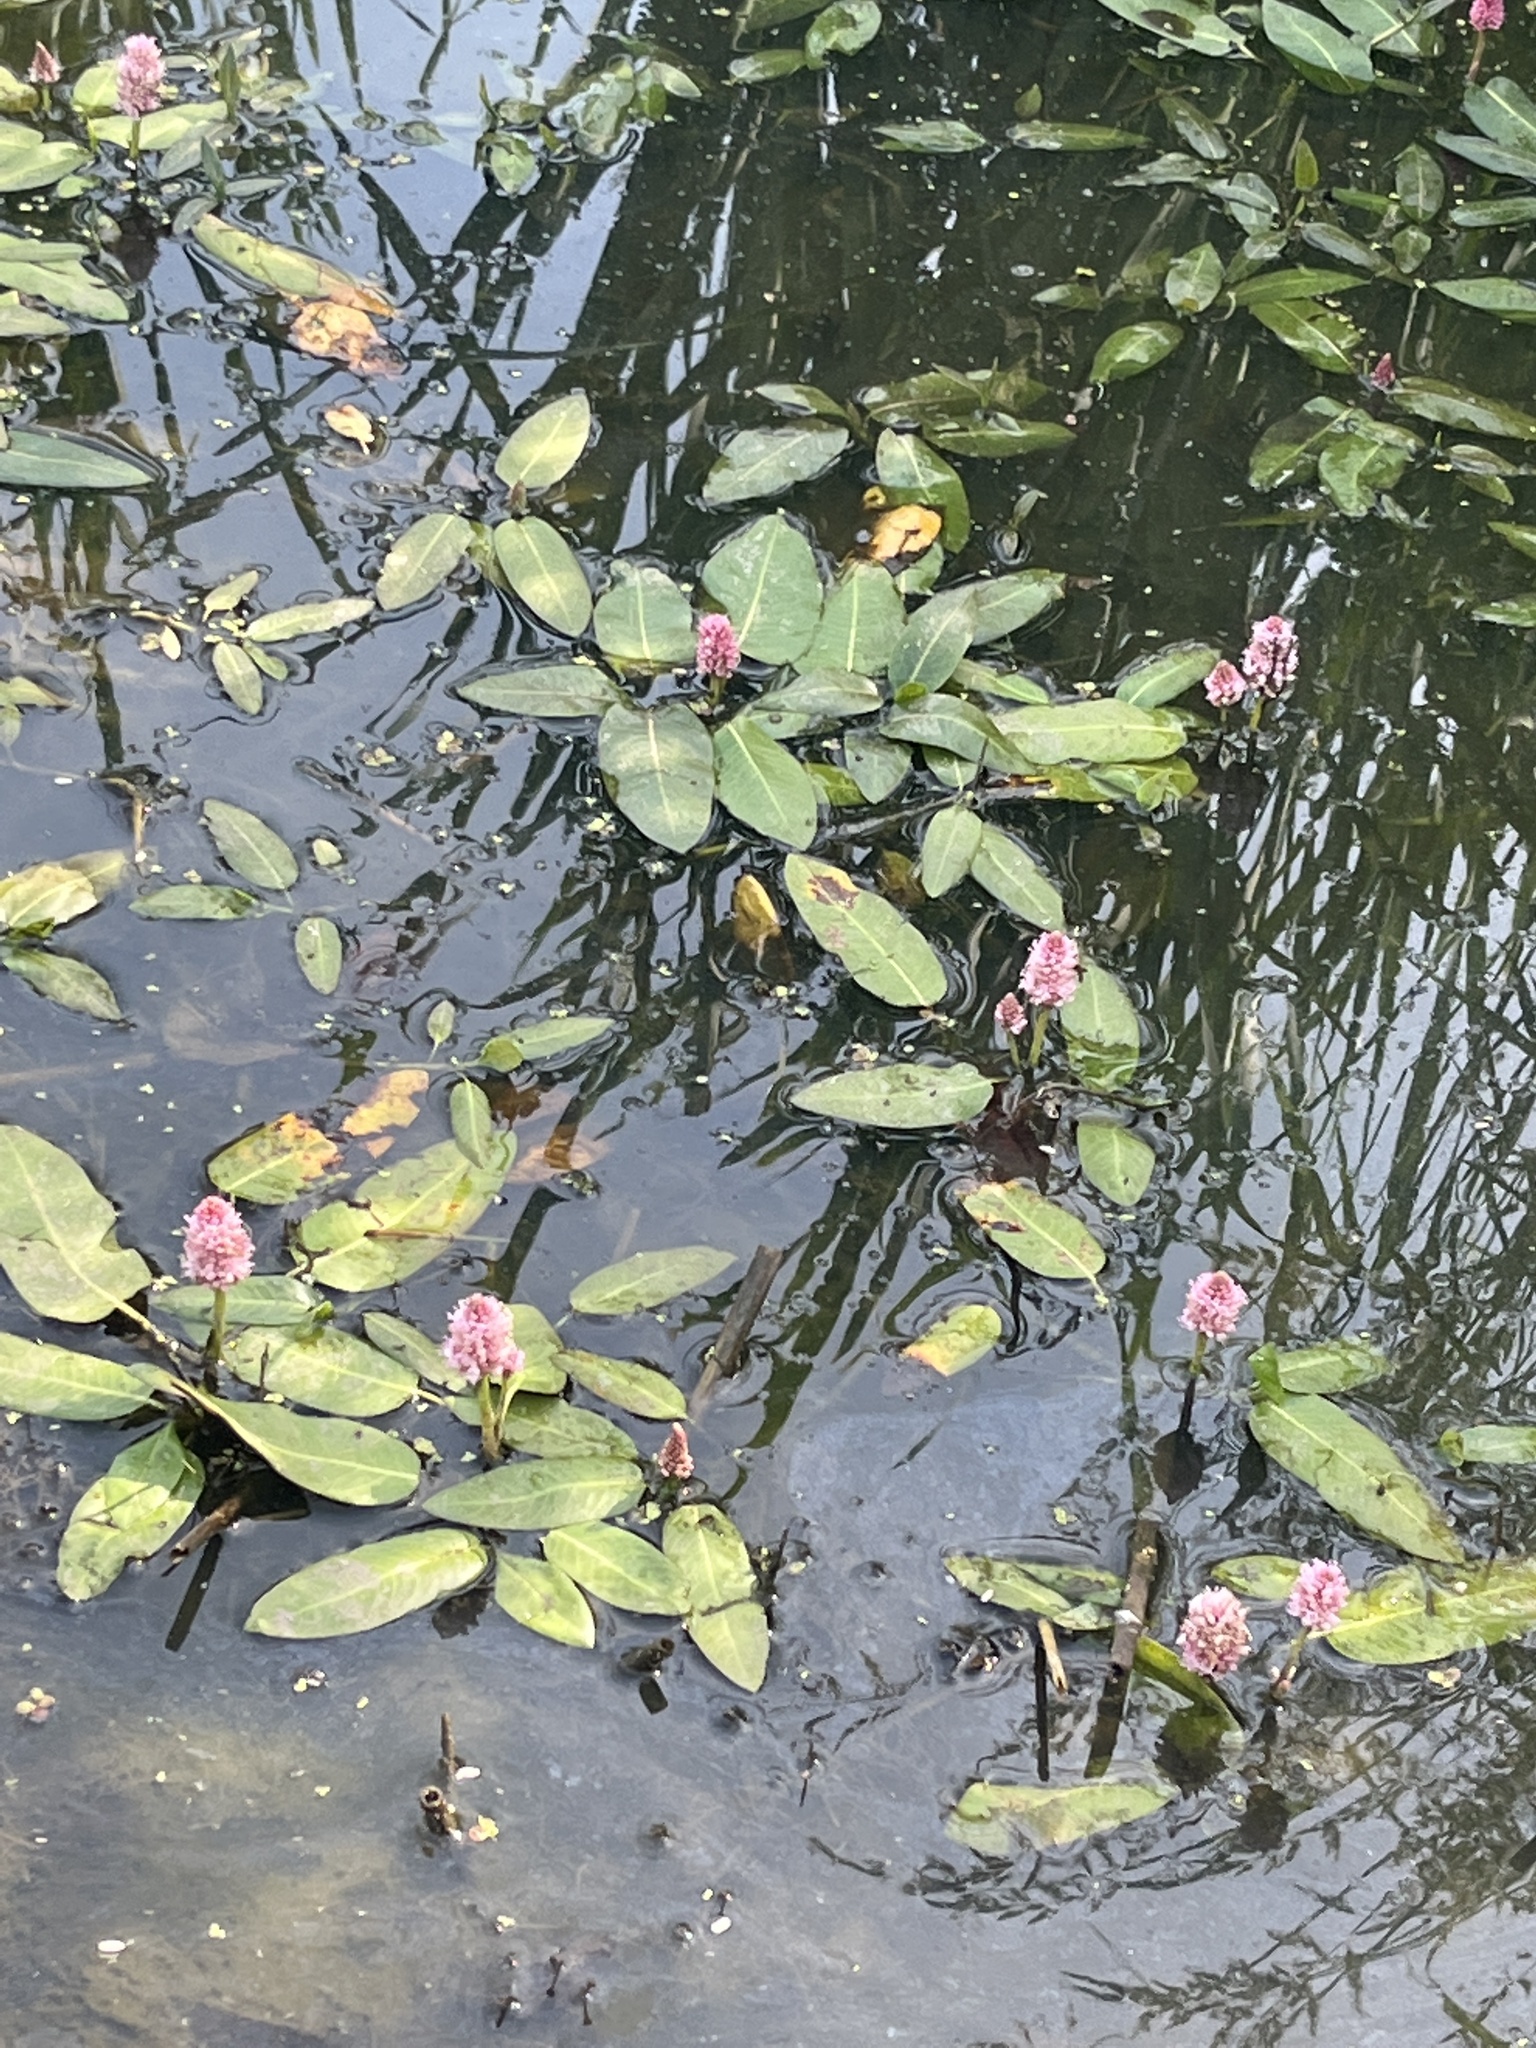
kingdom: Plantae
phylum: Tracheophyta
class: Magnoliopsida
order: Caryophyllales
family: Polygonaceae
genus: Persicaria
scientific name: Persicaria amphibia
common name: Amphibious bistort
